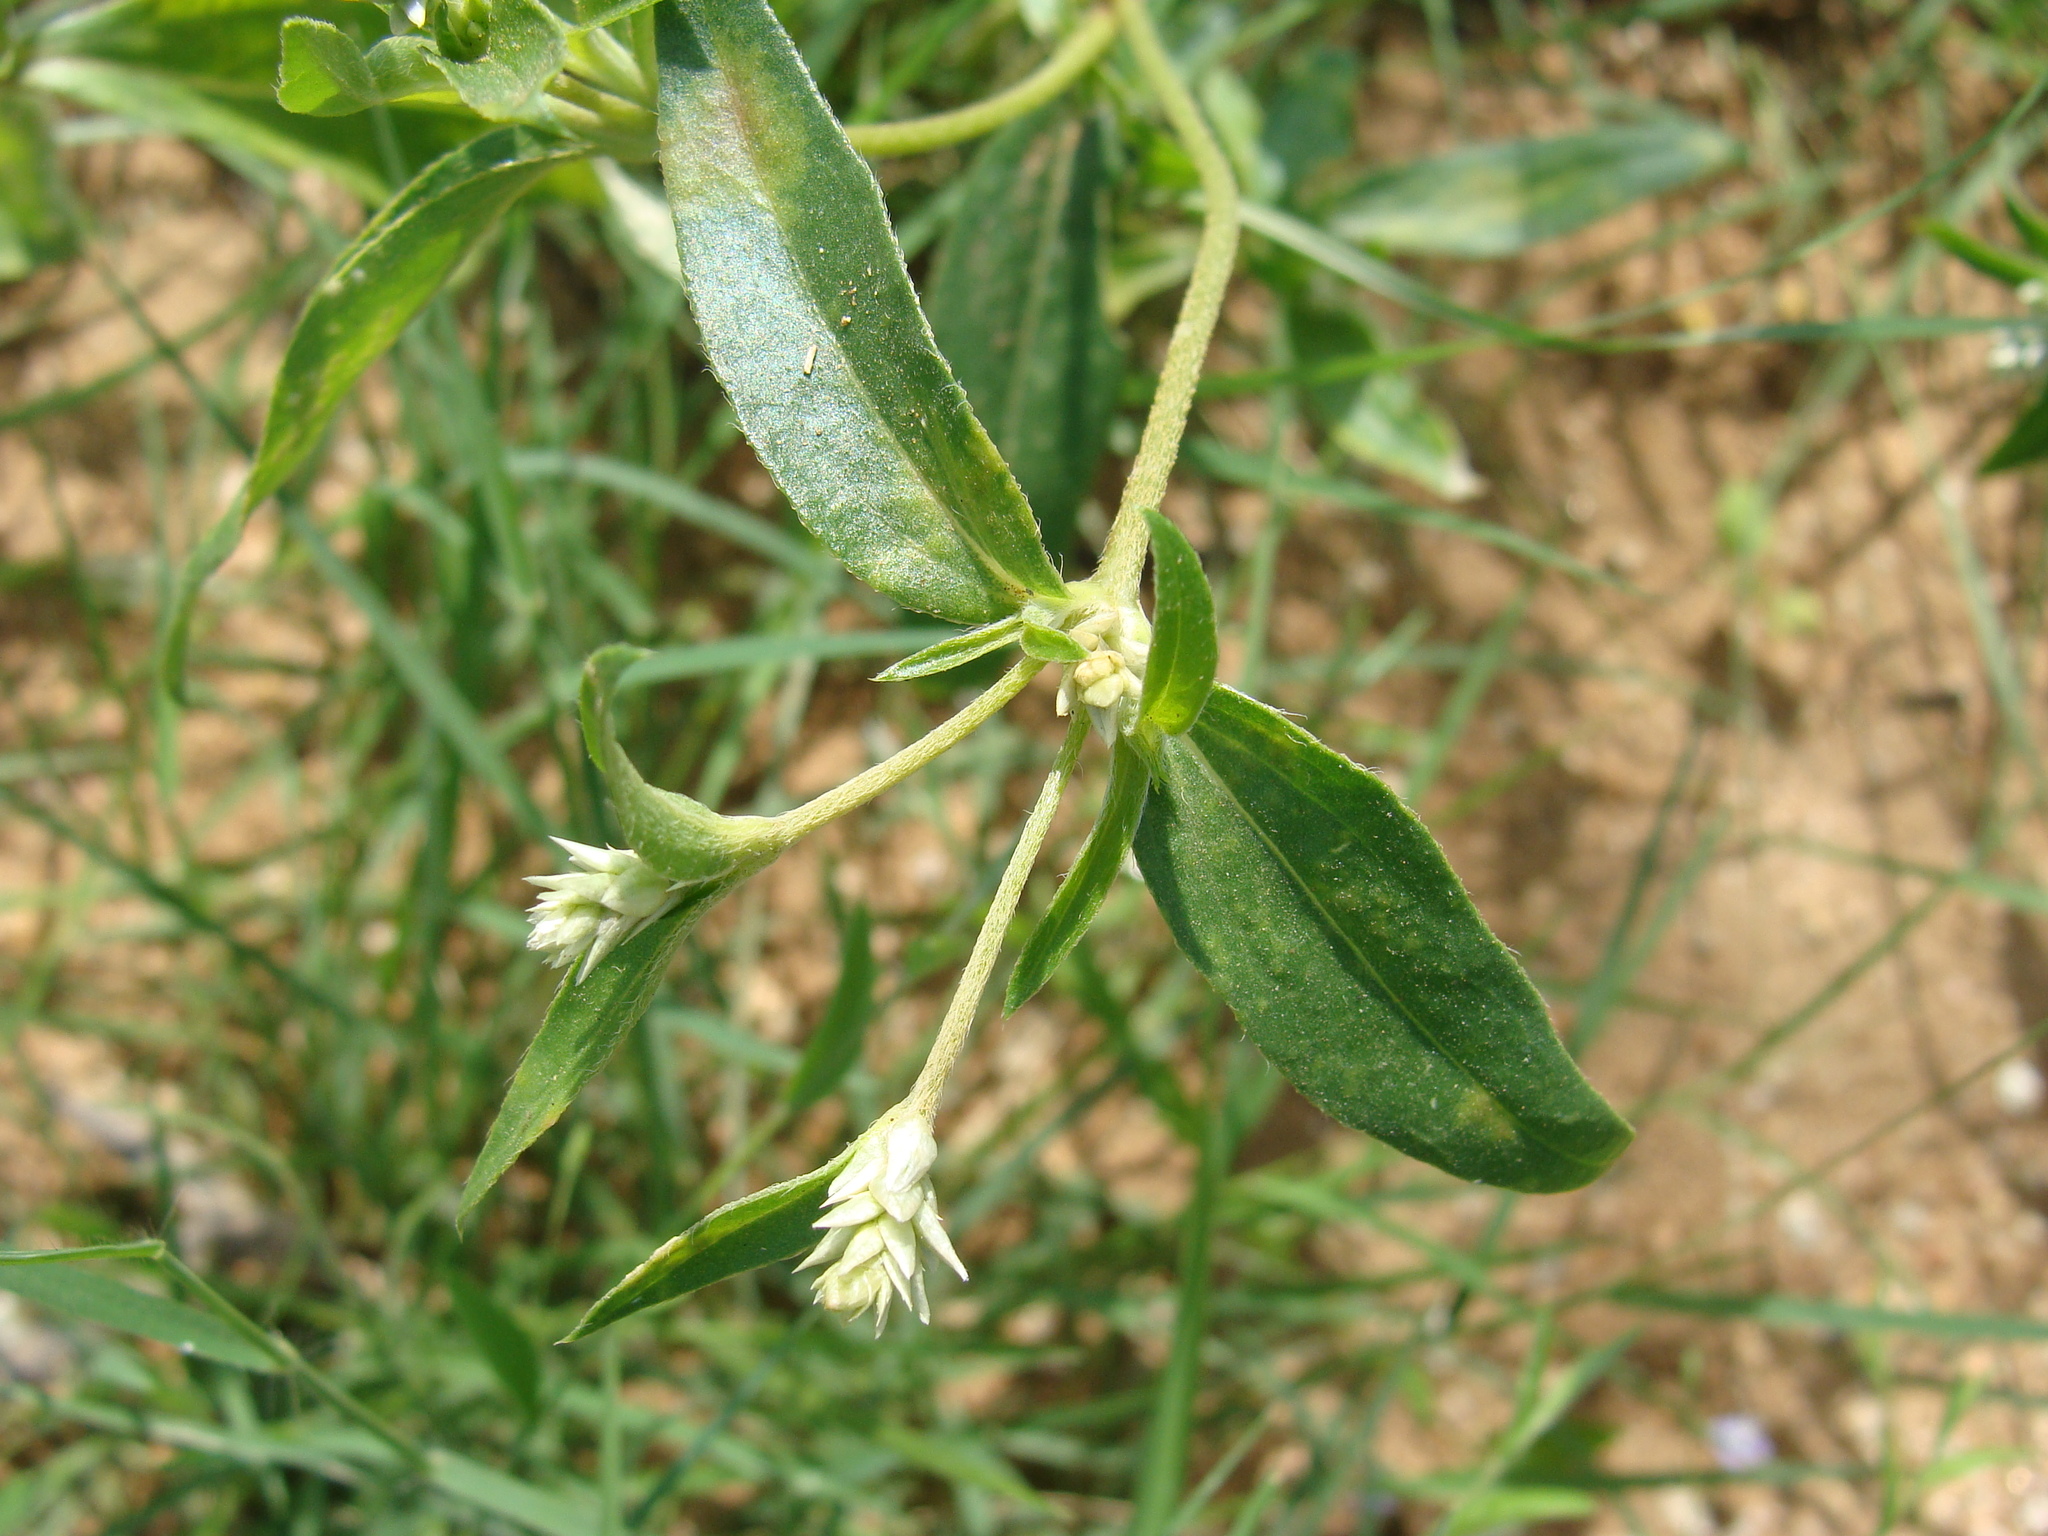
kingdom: Plantae
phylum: Tracheophyta
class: Magnoliopsida
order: Caryophyllales
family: Amaranthaceae
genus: Gomphrena
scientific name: Gomphrena sonorae
